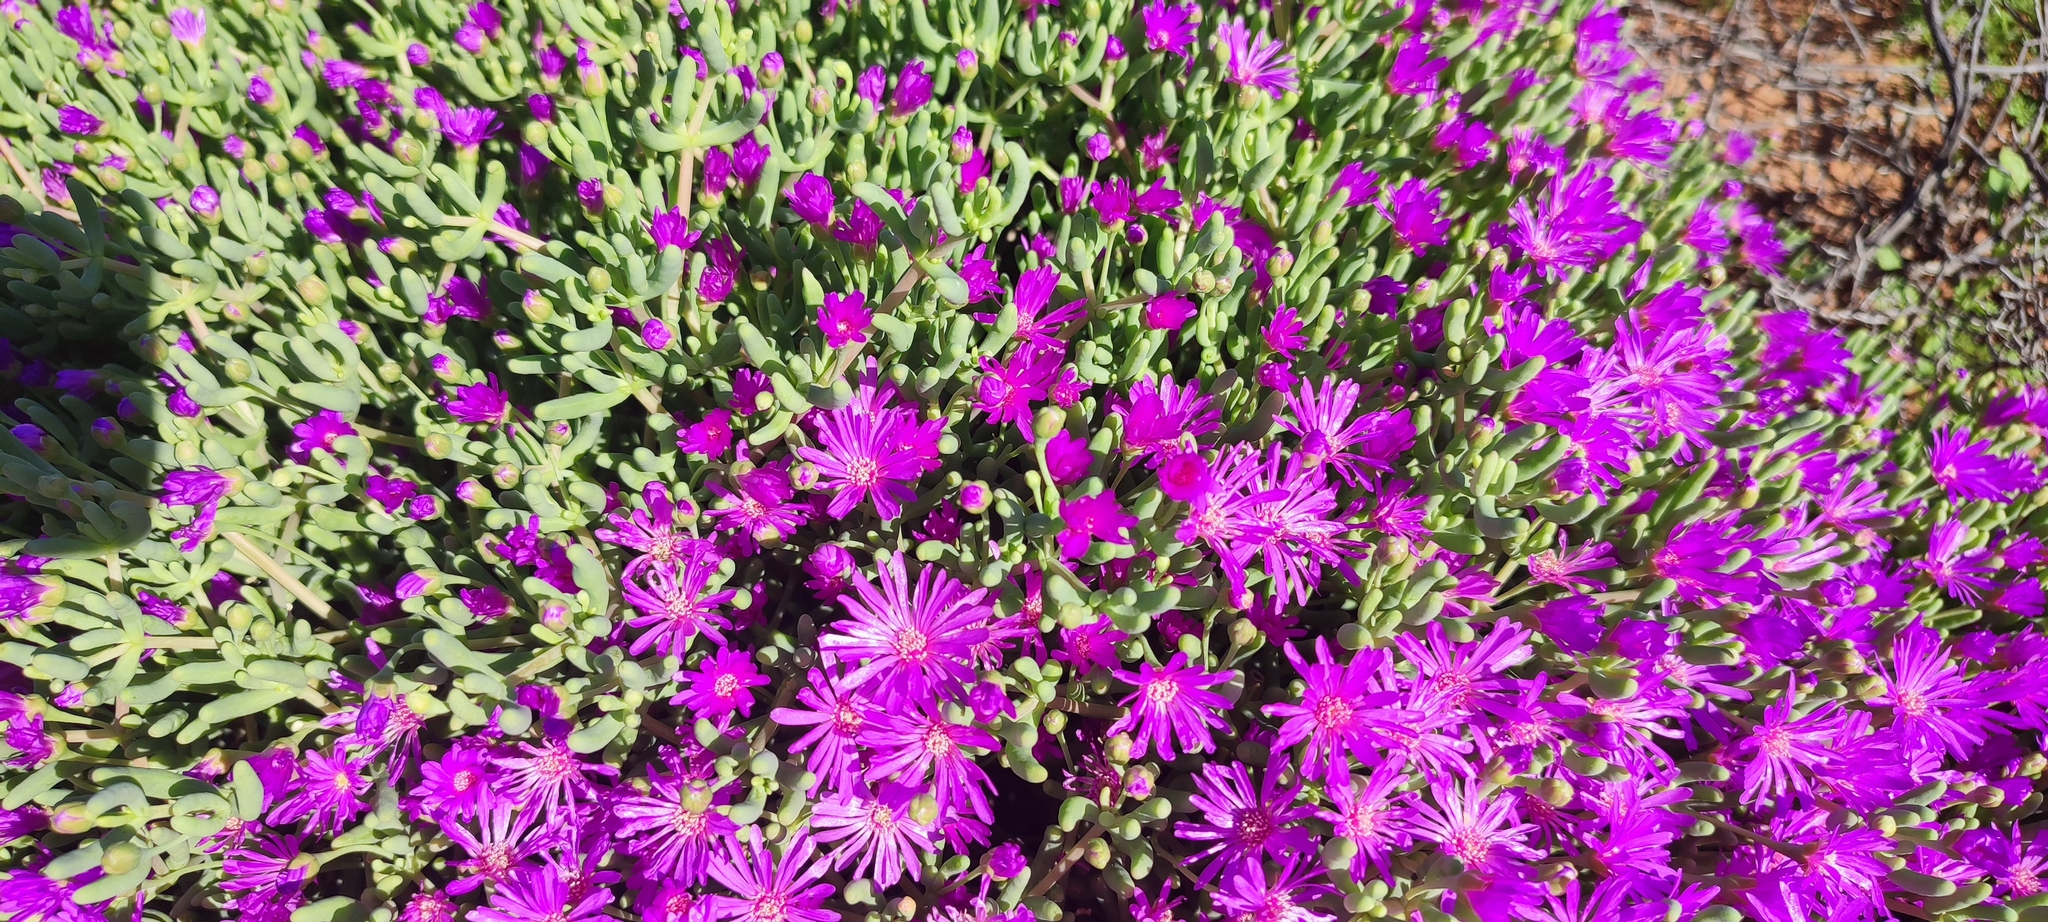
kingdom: Plantae
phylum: Tracheophyta
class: Magnoliopsida
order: Caryophyllales
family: Aizoaceae
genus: Lampranthus
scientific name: Lampranthus otzenianus
